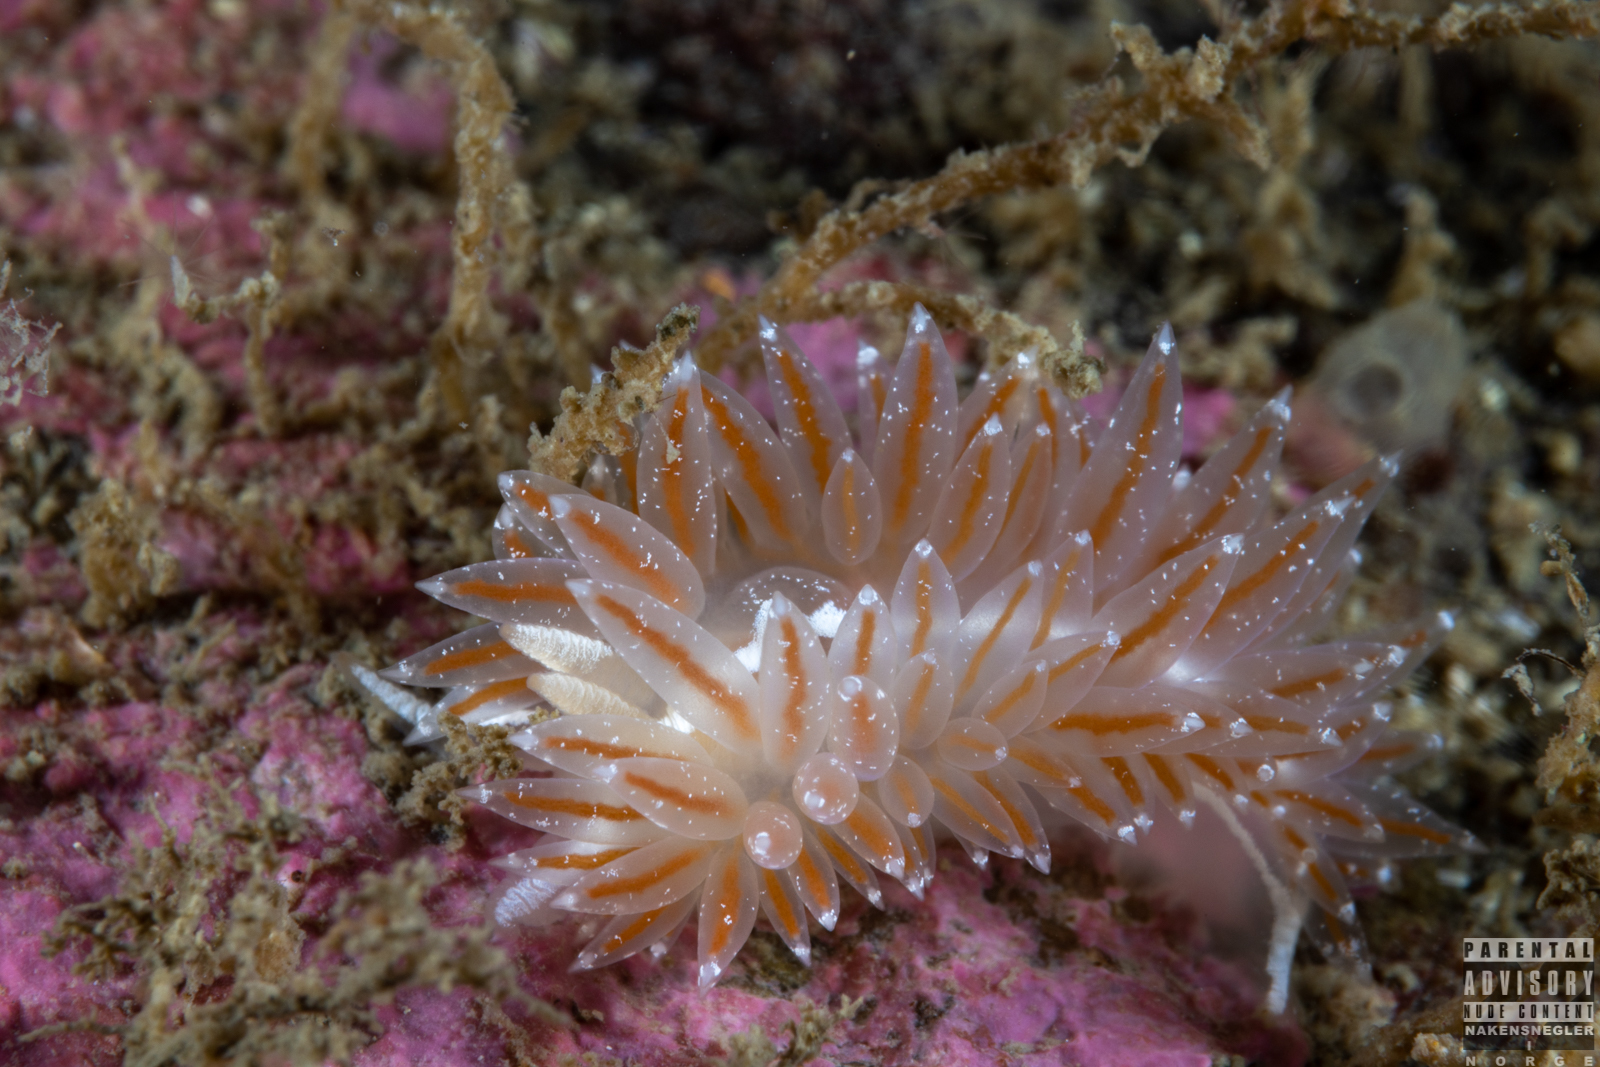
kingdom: Animalia
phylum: Mollusca
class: Gastropoda
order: Nudibranchia
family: Coryphellidae
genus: Coryphella
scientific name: Coryphella monicae
